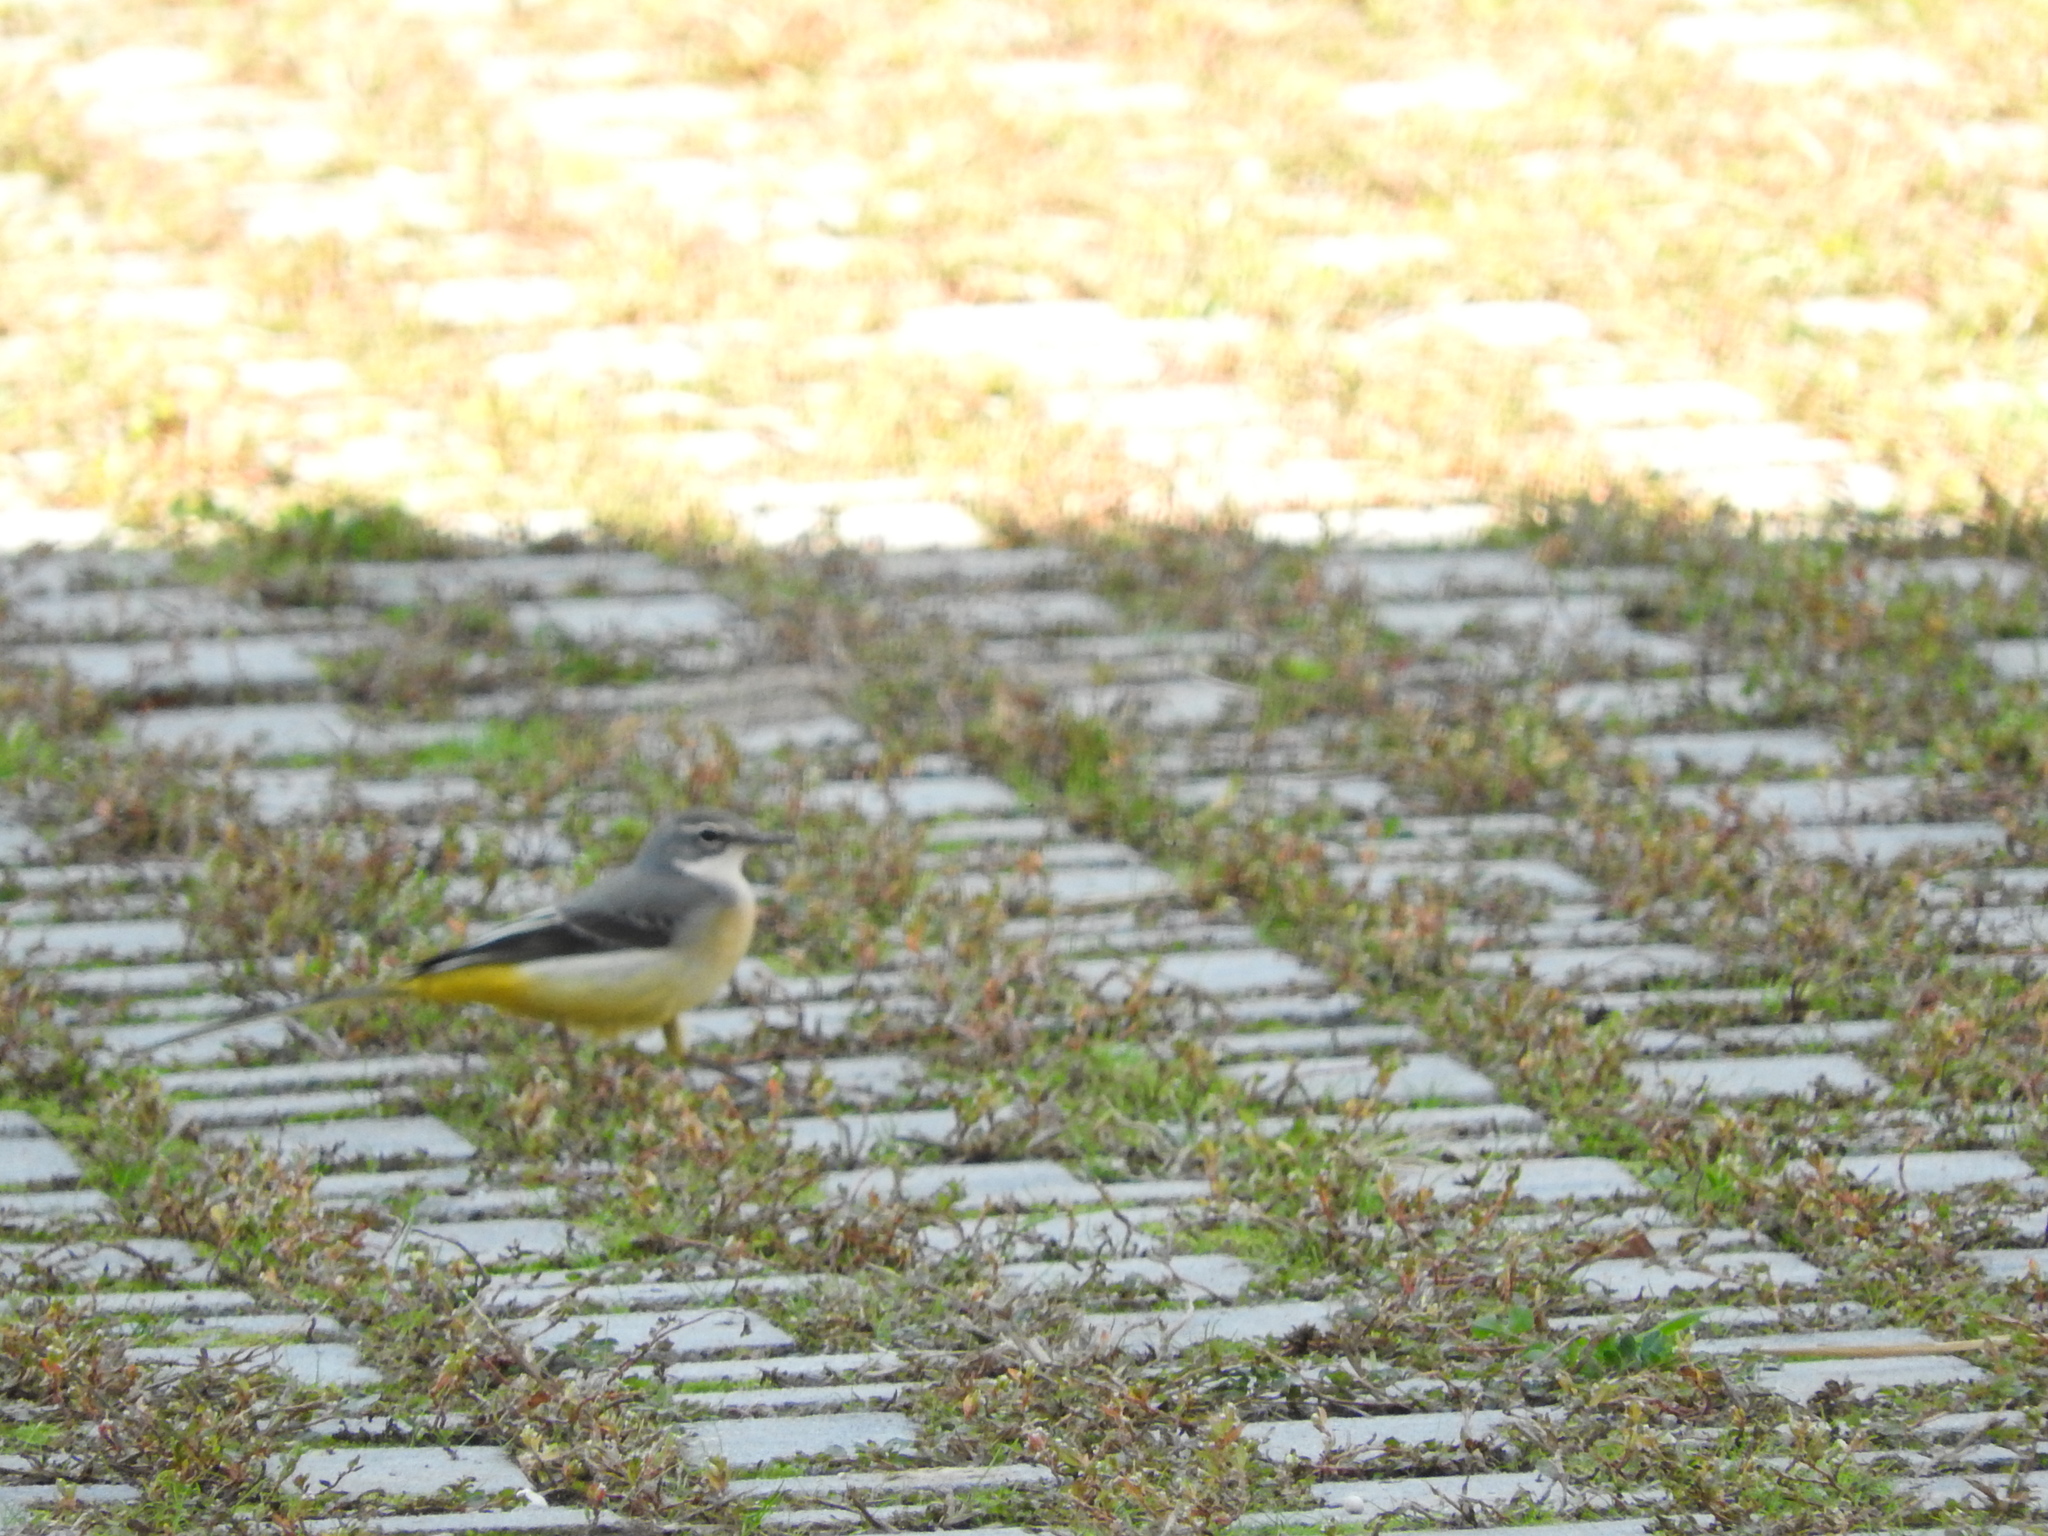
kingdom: Animalia
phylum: Chordata
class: Aves
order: Passeriformes
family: Motacillidae
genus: Motacilla
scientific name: Motacilla cinerea
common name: Grey wagtail
